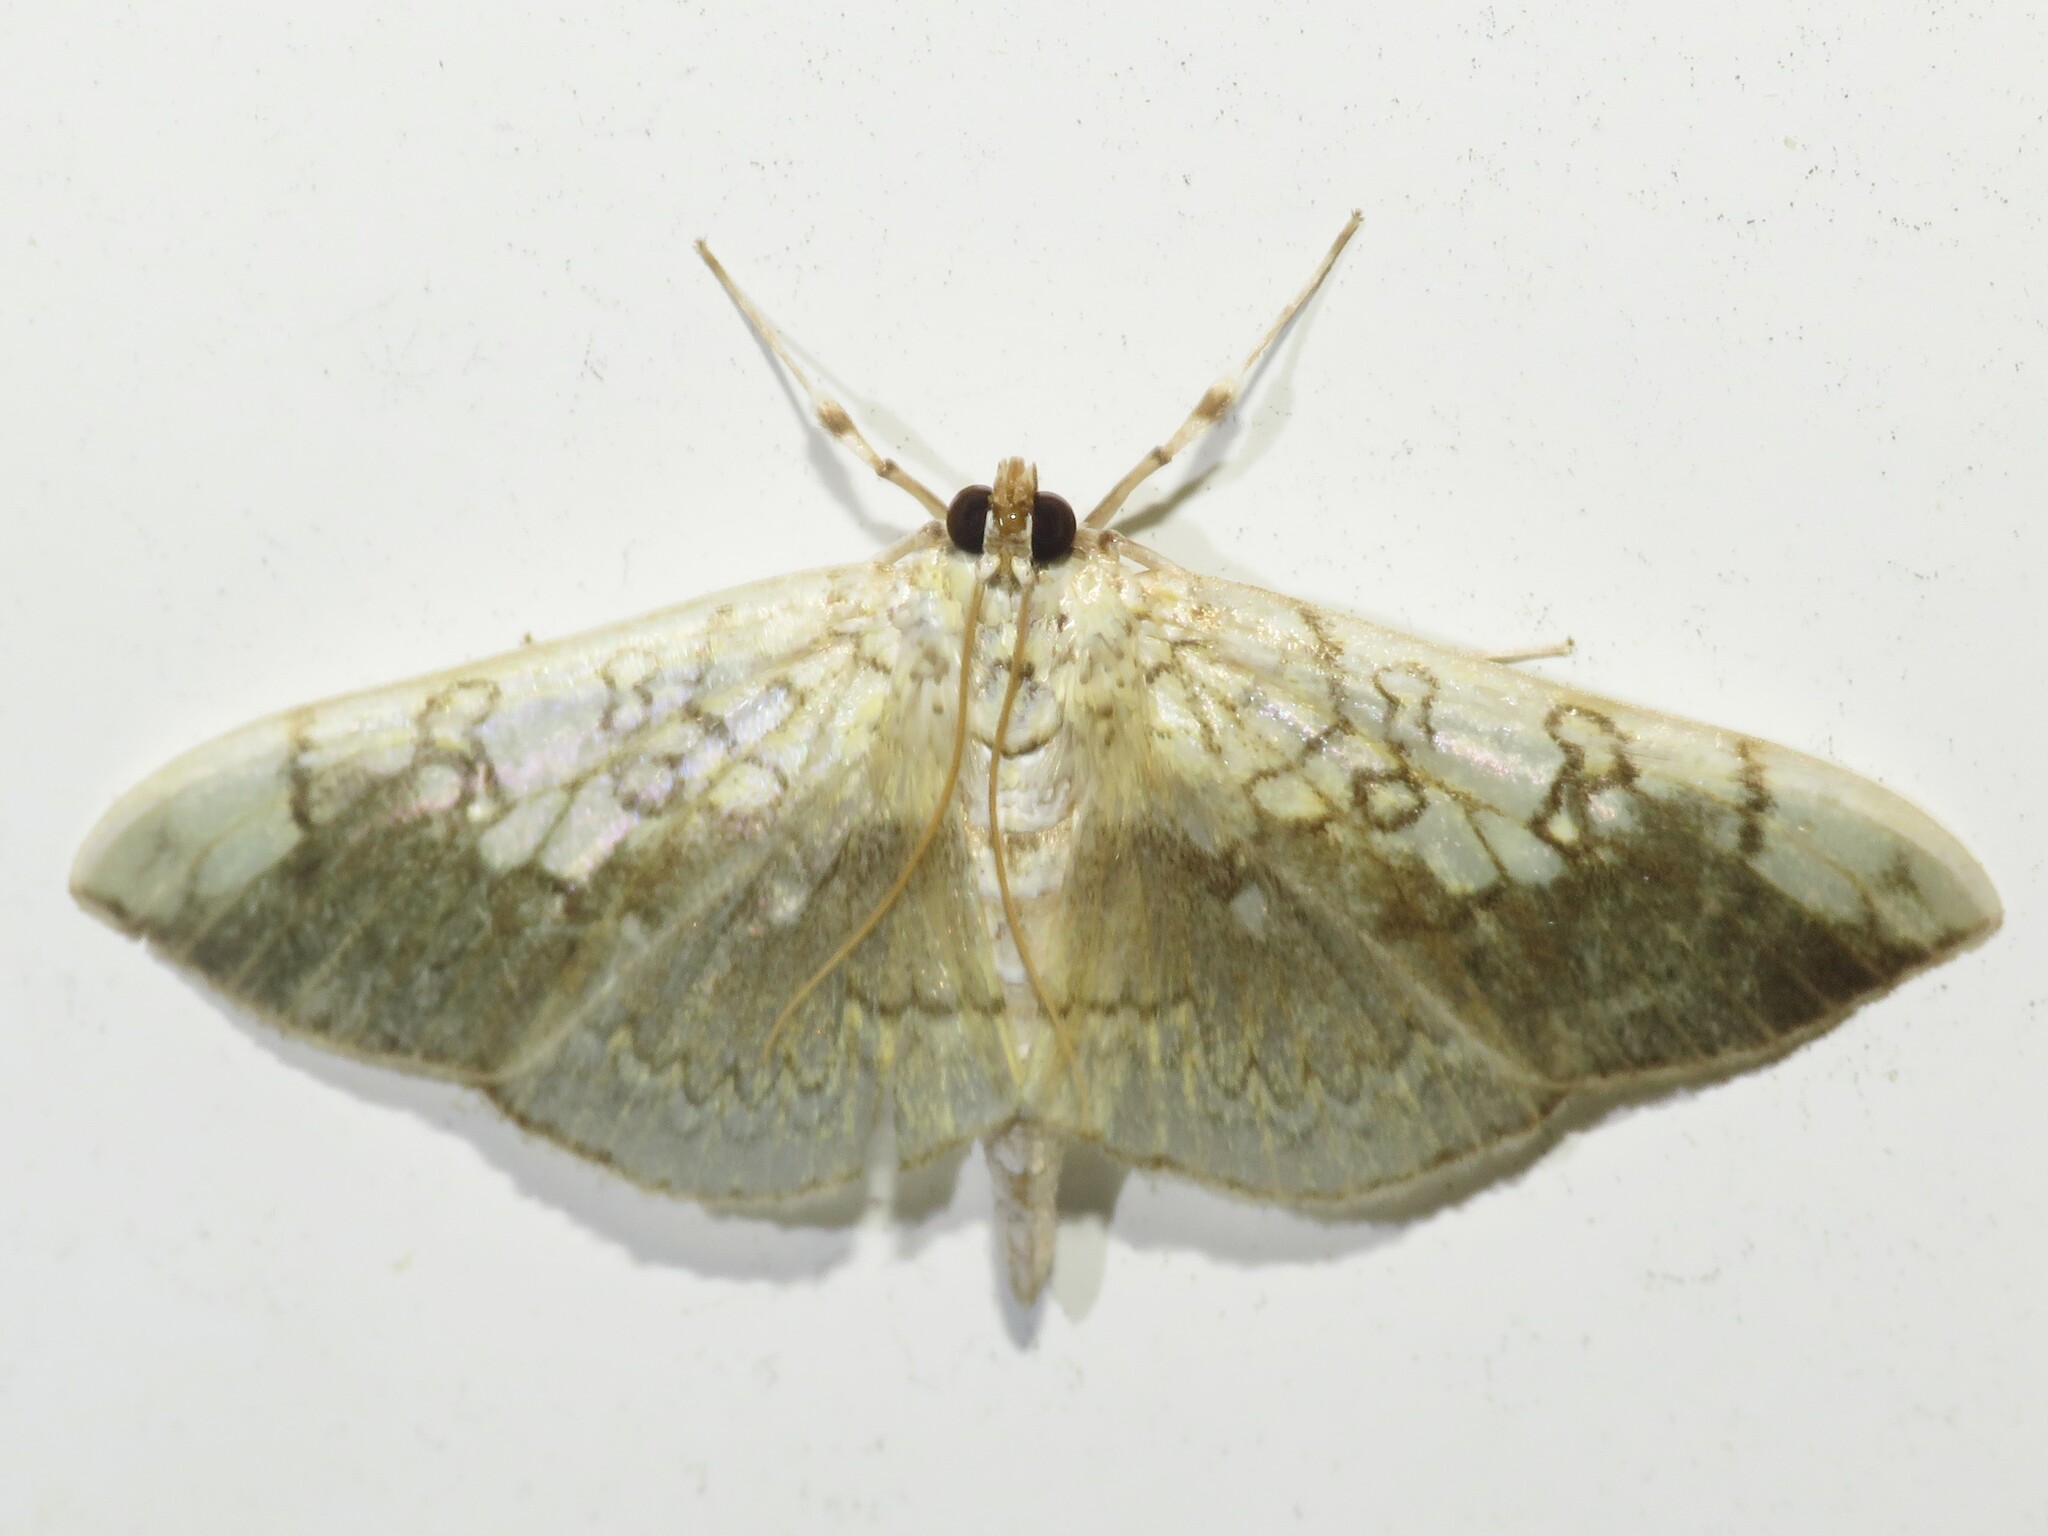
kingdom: Animalia
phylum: Arthropoda
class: Insecta
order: Lepidoptera
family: Crambidae
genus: Pantographa
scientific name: Pantographa limata
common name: Basswood leafroller moth
